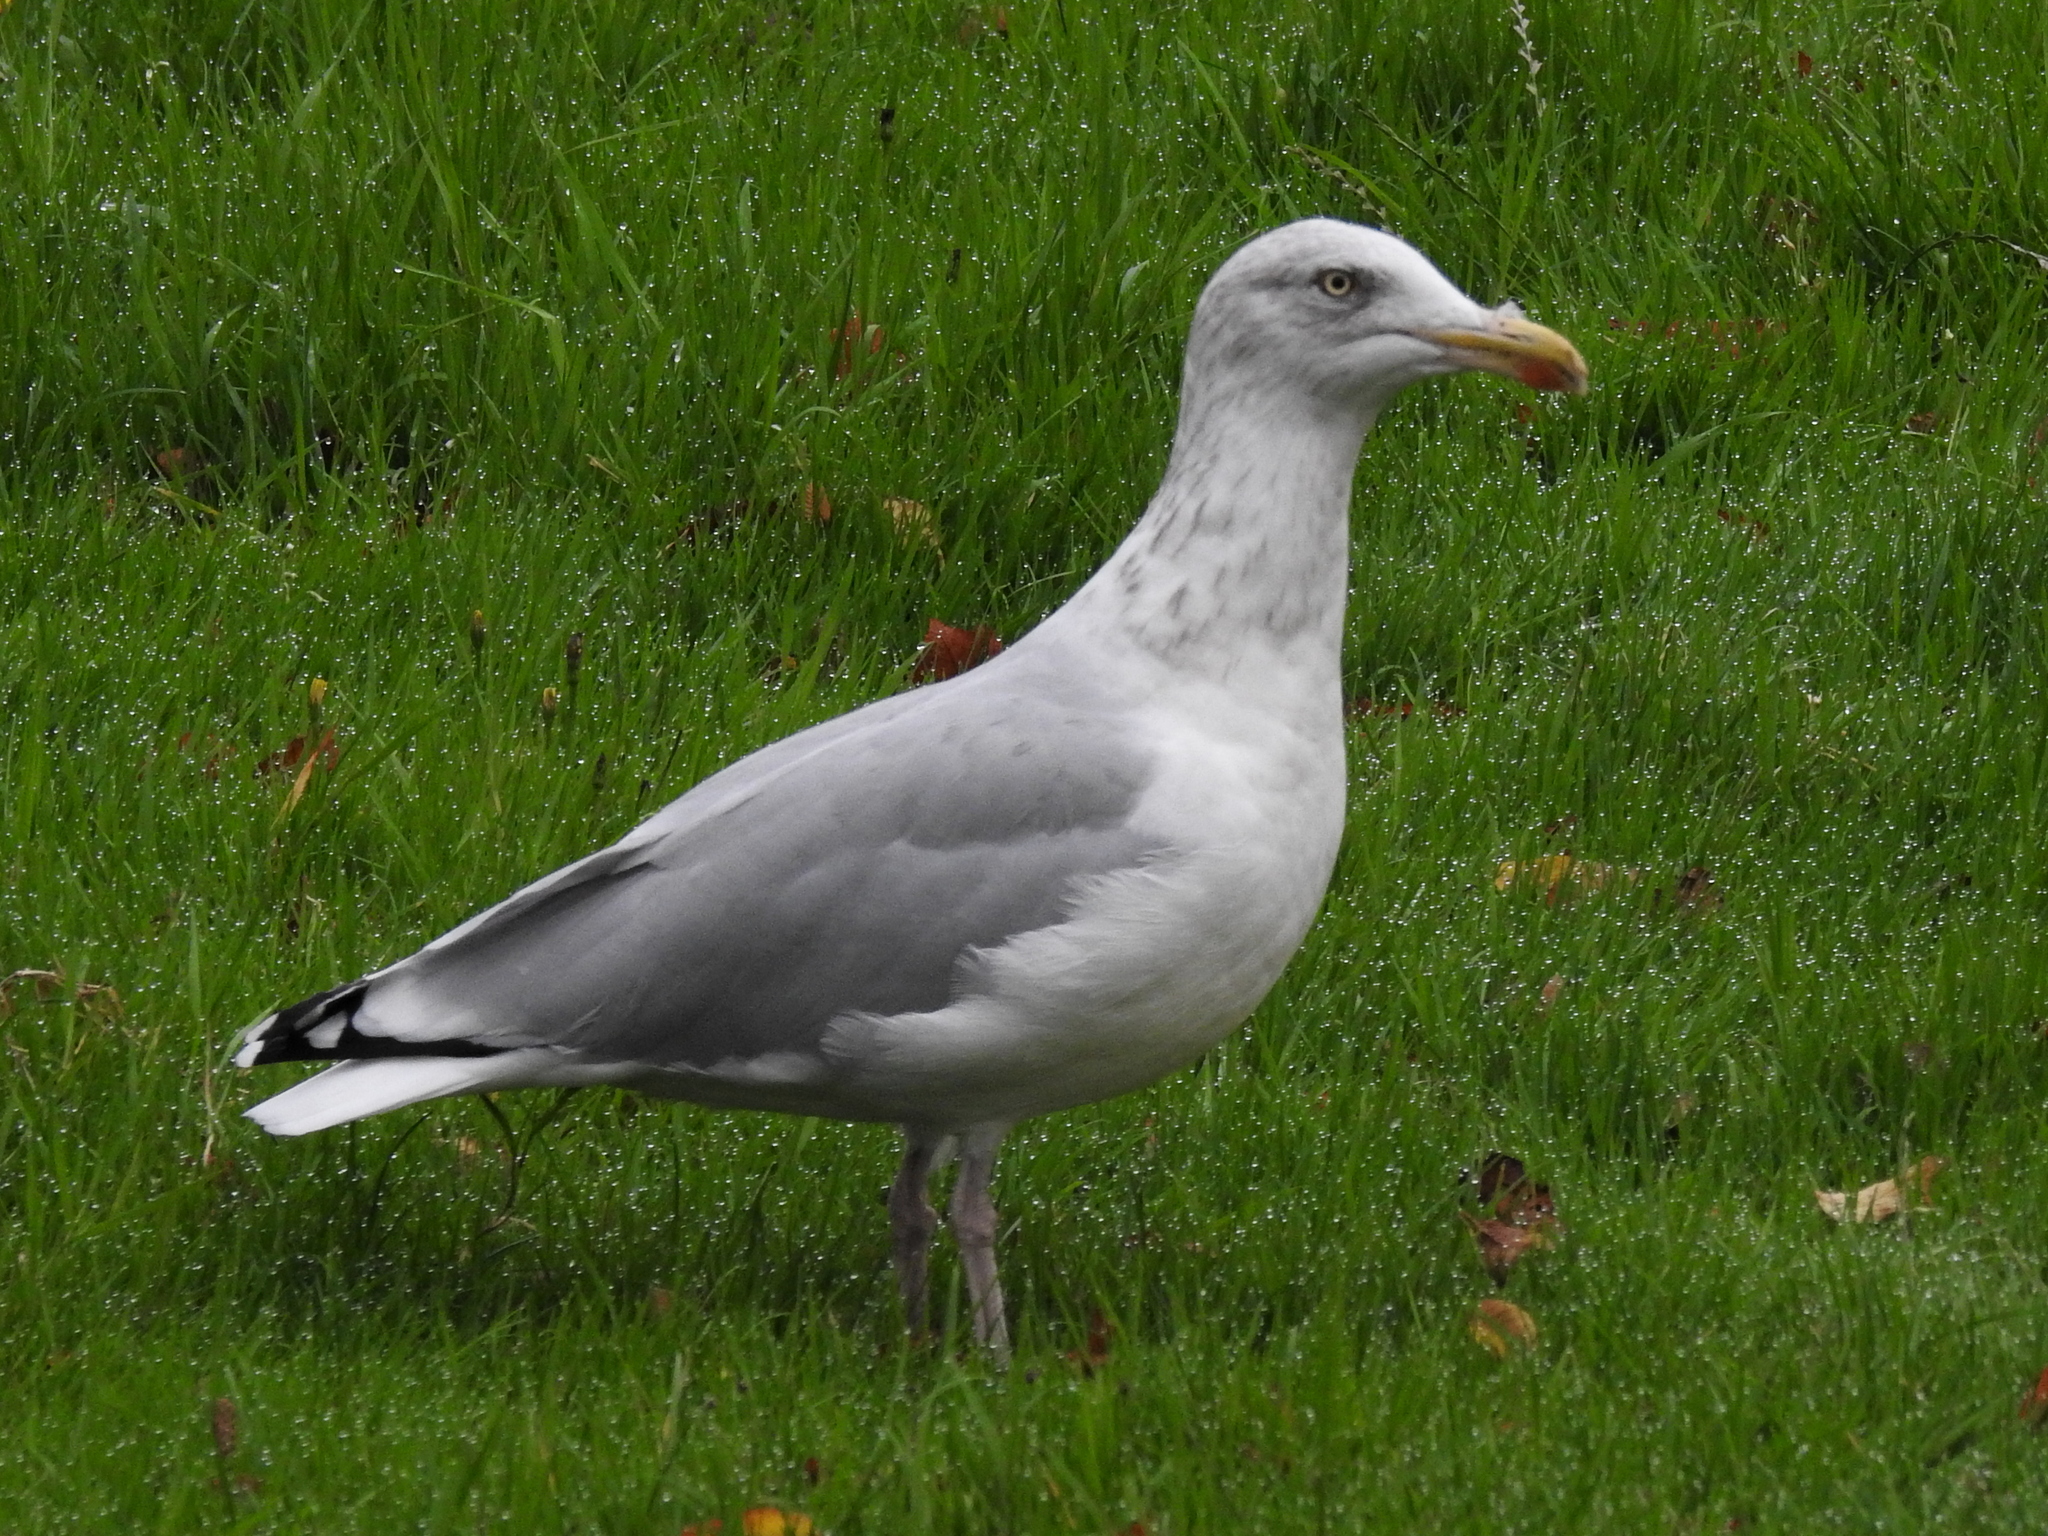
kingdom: Animalia
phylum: Chordata
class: Aves
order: Charadriiformes
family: Laridae
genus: Larus
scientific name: Larus argentatus
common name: Herring gull
